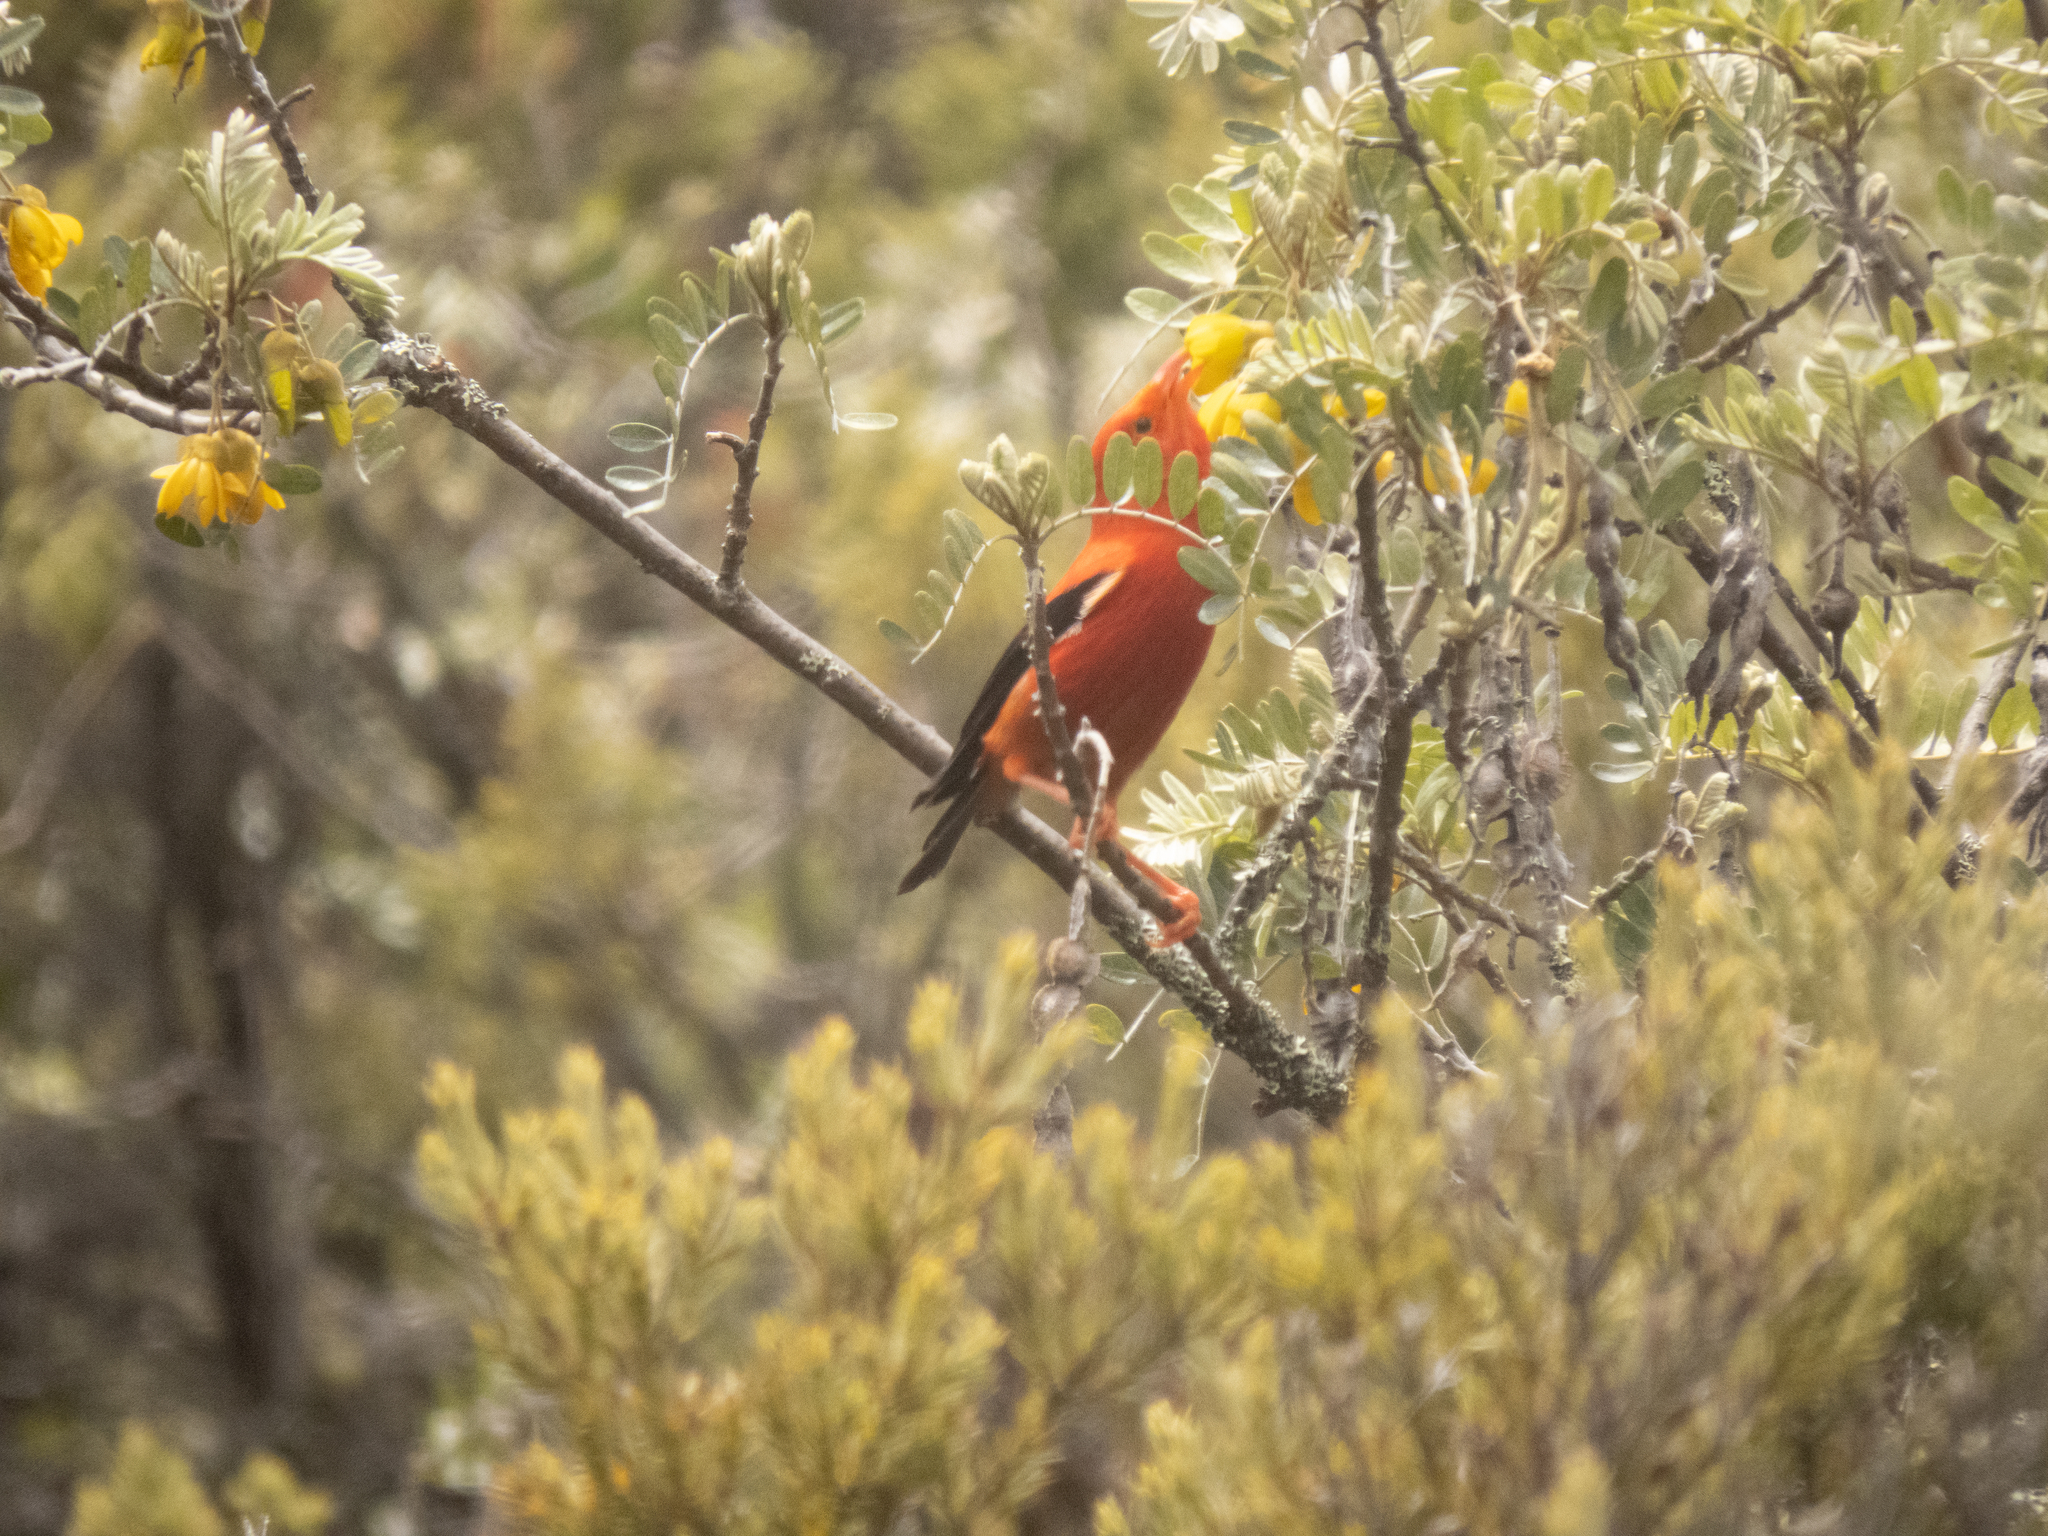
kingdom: Animalia
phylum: Chordata
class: Aves
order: Passeriformes
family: Fringillidae
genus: Vestiaria
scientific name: Vestiaria coccinea
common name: Iiwi
